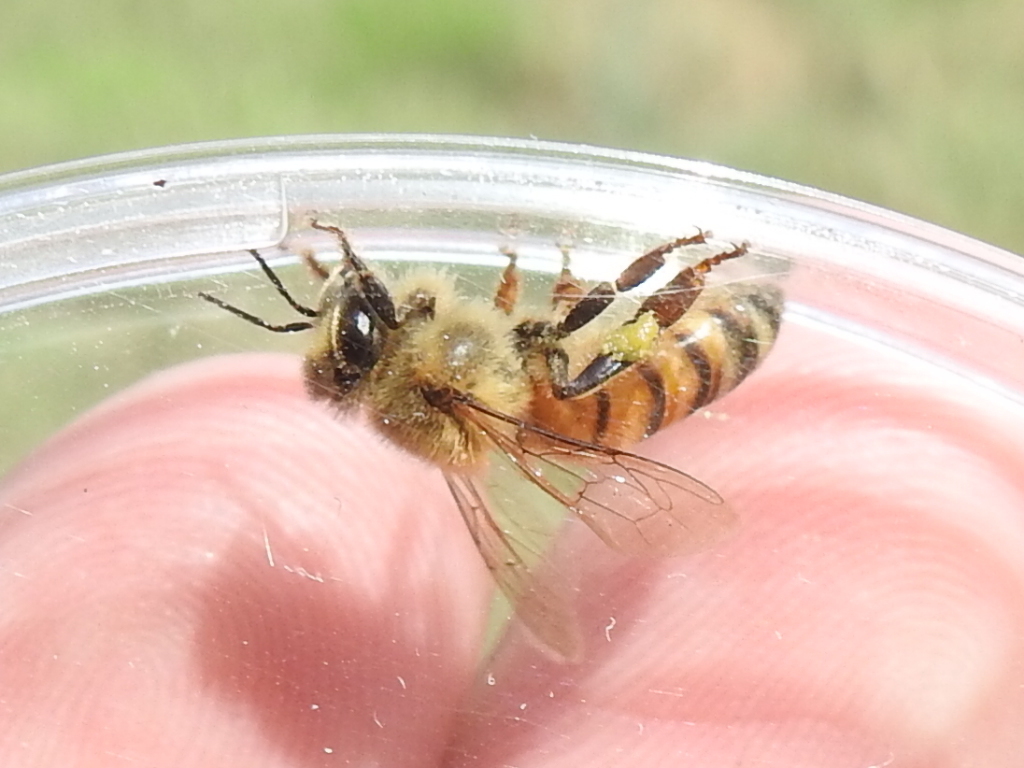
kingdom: Animalia
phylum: Arthropoda
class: Insecta
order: Hymenoptera
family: Apidae
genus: Apis
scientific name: Apis mellifera
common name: Honey bee
